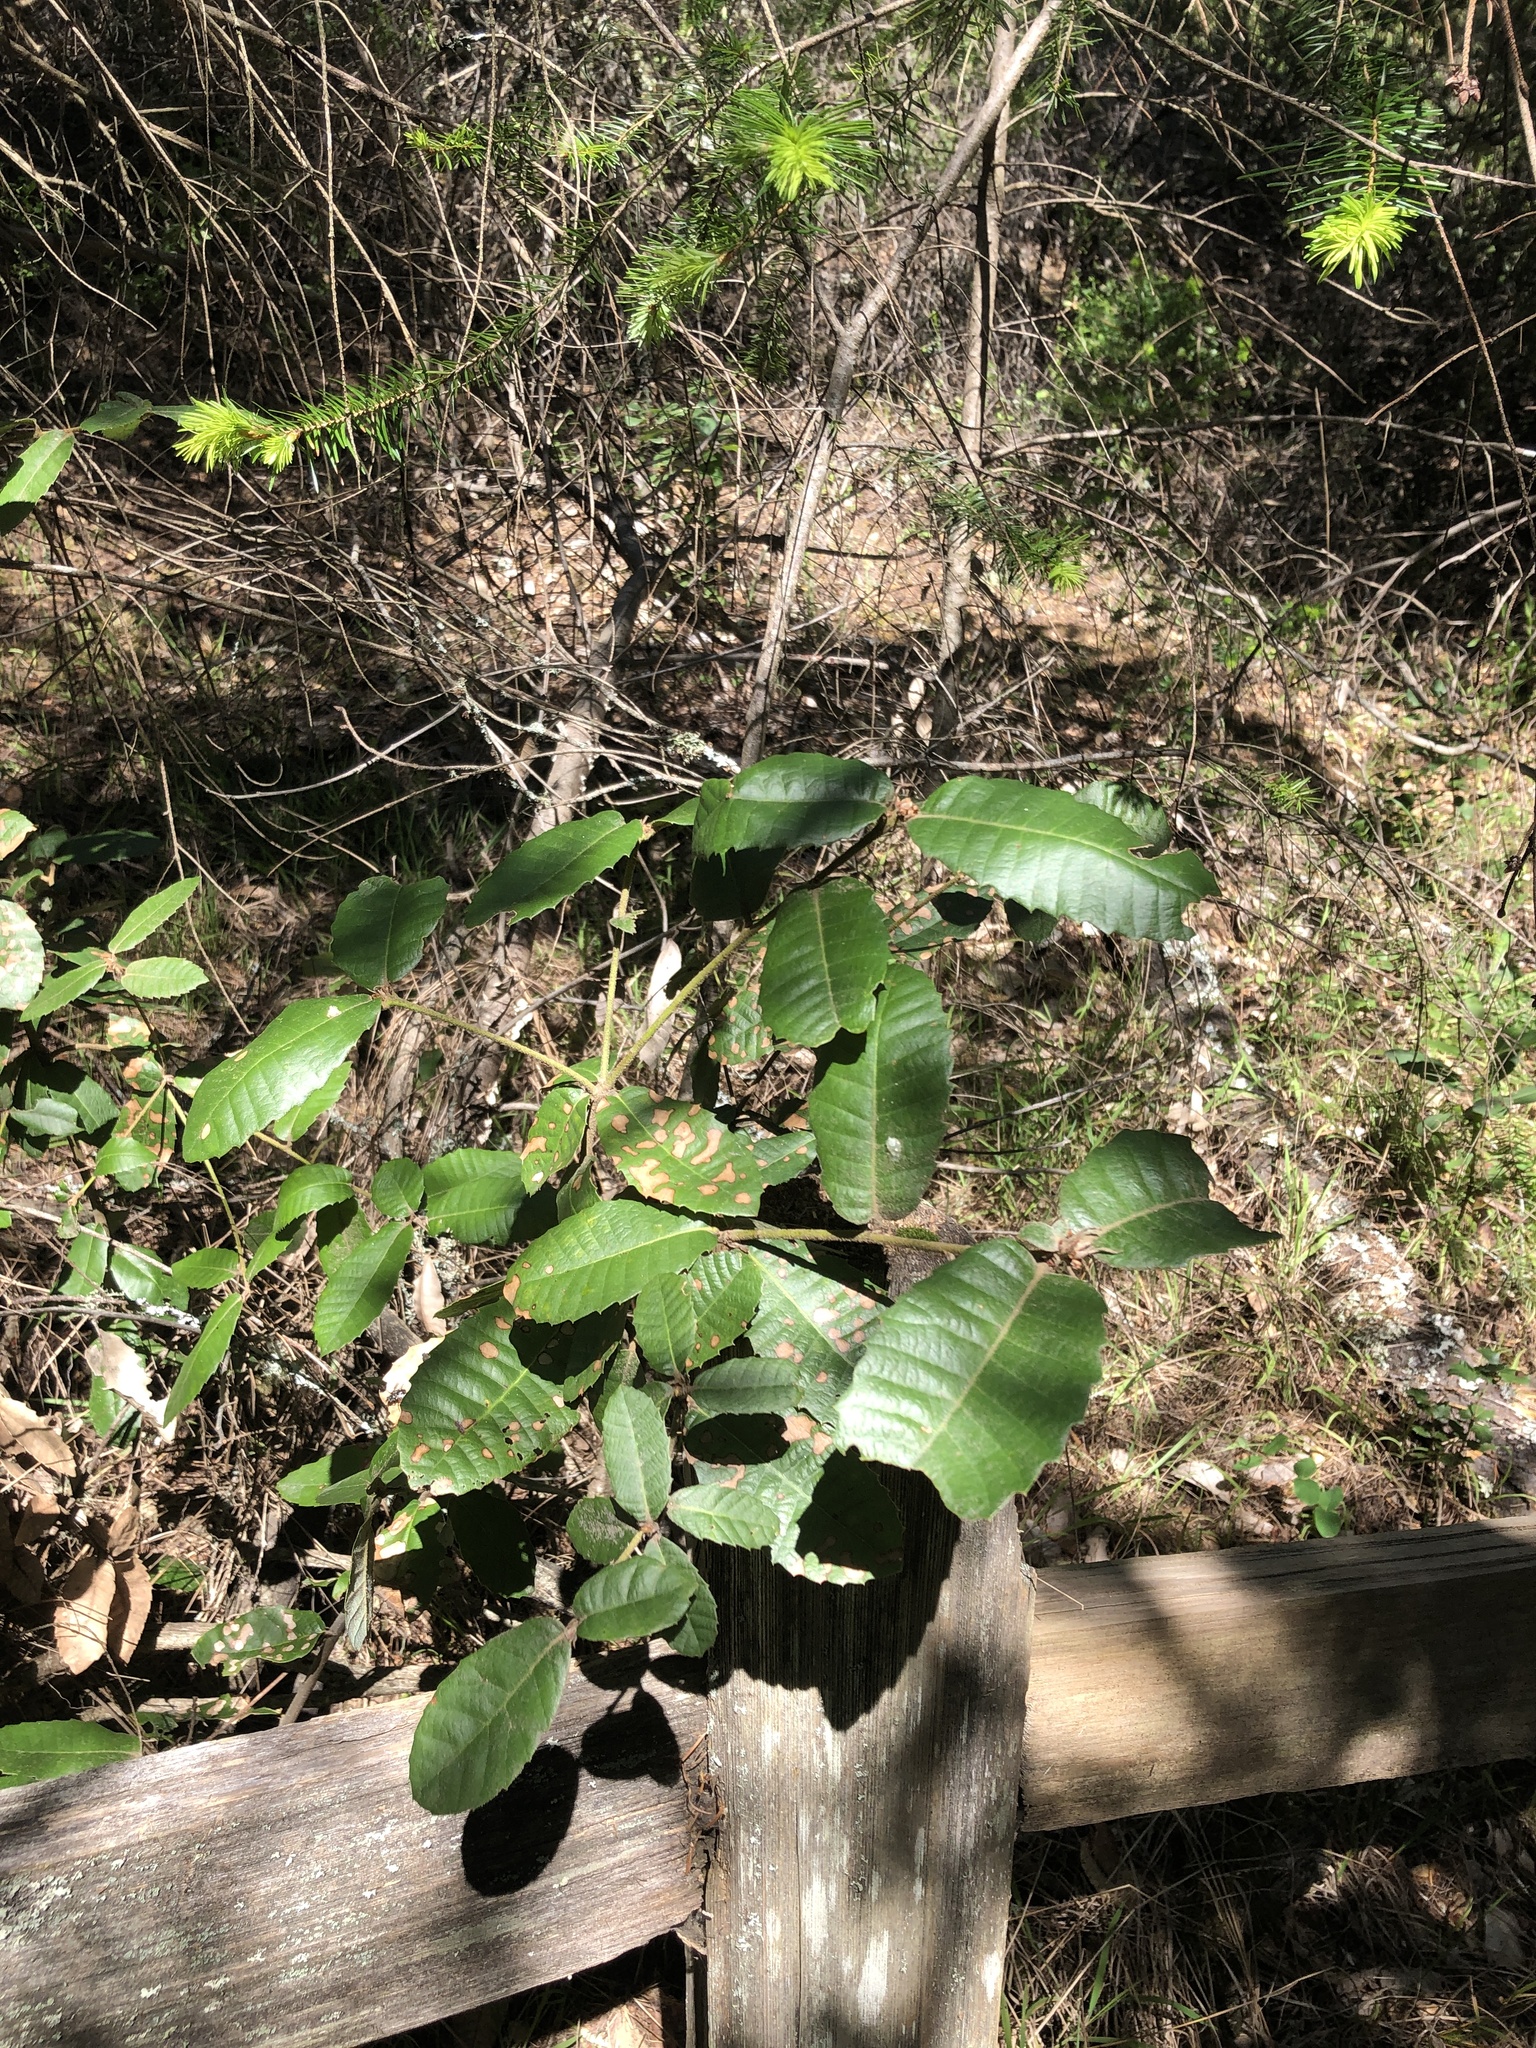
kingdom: Plantae
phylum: Tracheophyta
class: Magnoliopsida
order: Fagales
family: Fagaceae
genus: Notholithocarpus
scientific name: Notholithocarpus densiflorus
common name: Tan bark oak
